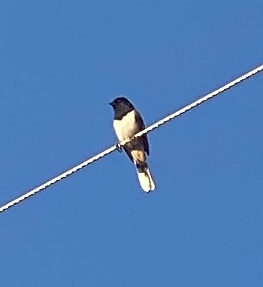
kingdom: Animalia
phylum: Chordata
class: Aves
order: Passeriformes
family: Passerellidae
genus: Pipilo
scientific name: Pipilo maculatus
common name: Spotted towhee
